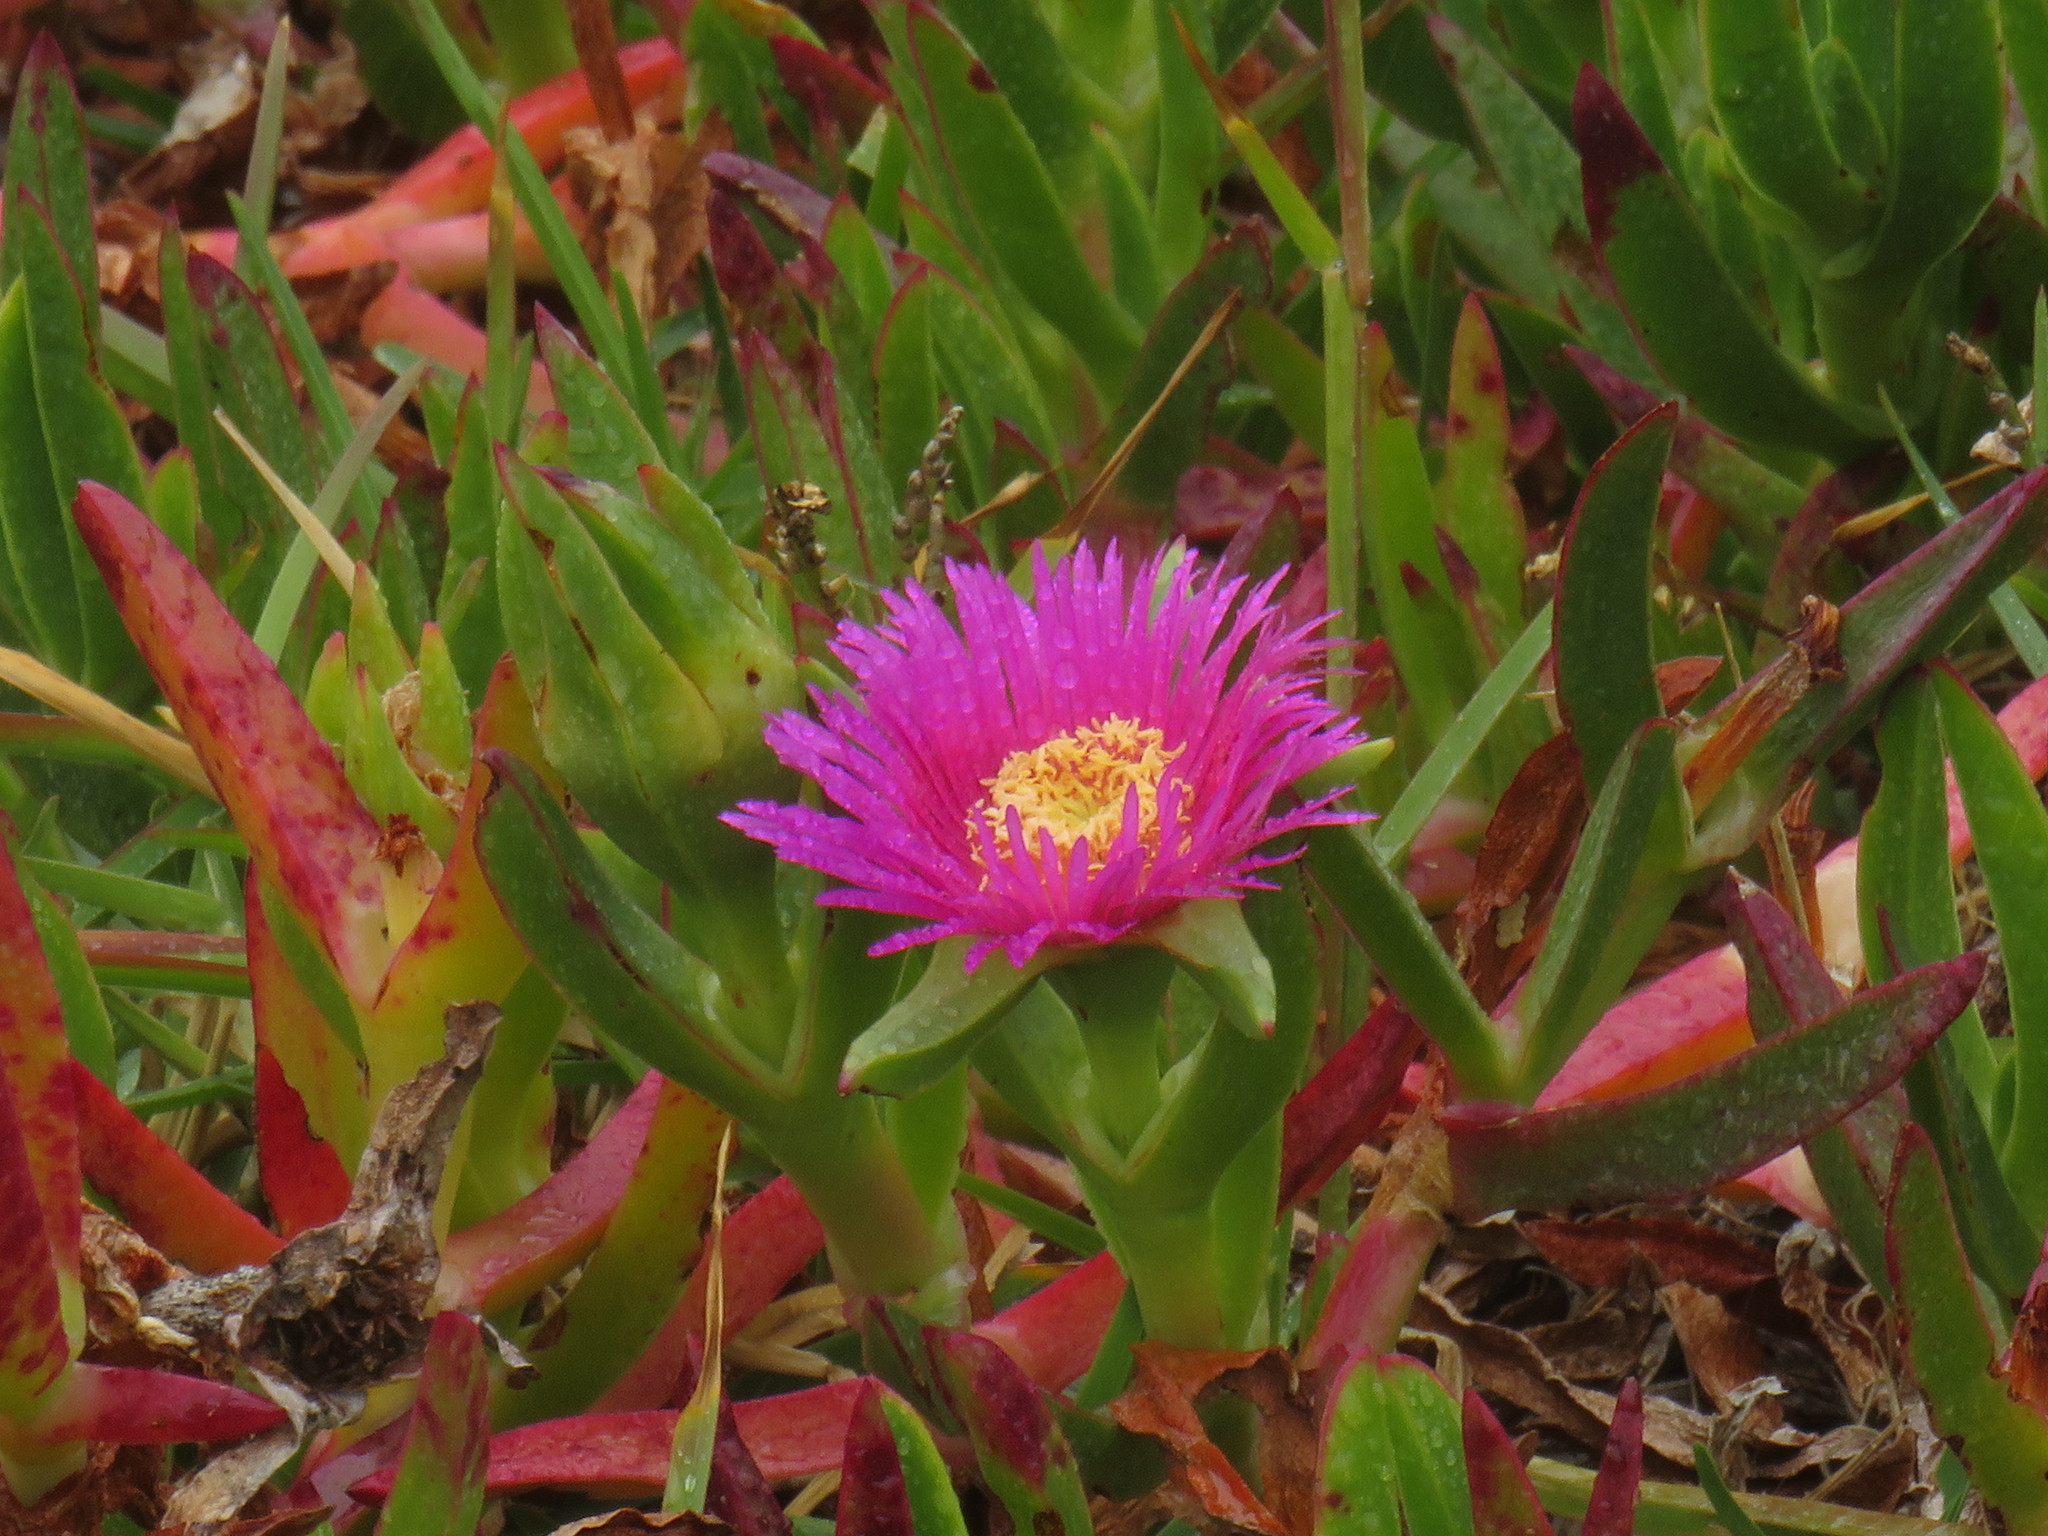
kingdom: Plantae
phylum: Tracheophyta
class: Magnoliopsida
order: Caryophyllales
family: Aizoaceae
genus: Carpobrotus
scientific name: Carpobrotus acinaciformis
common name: Sally-my-handsome
